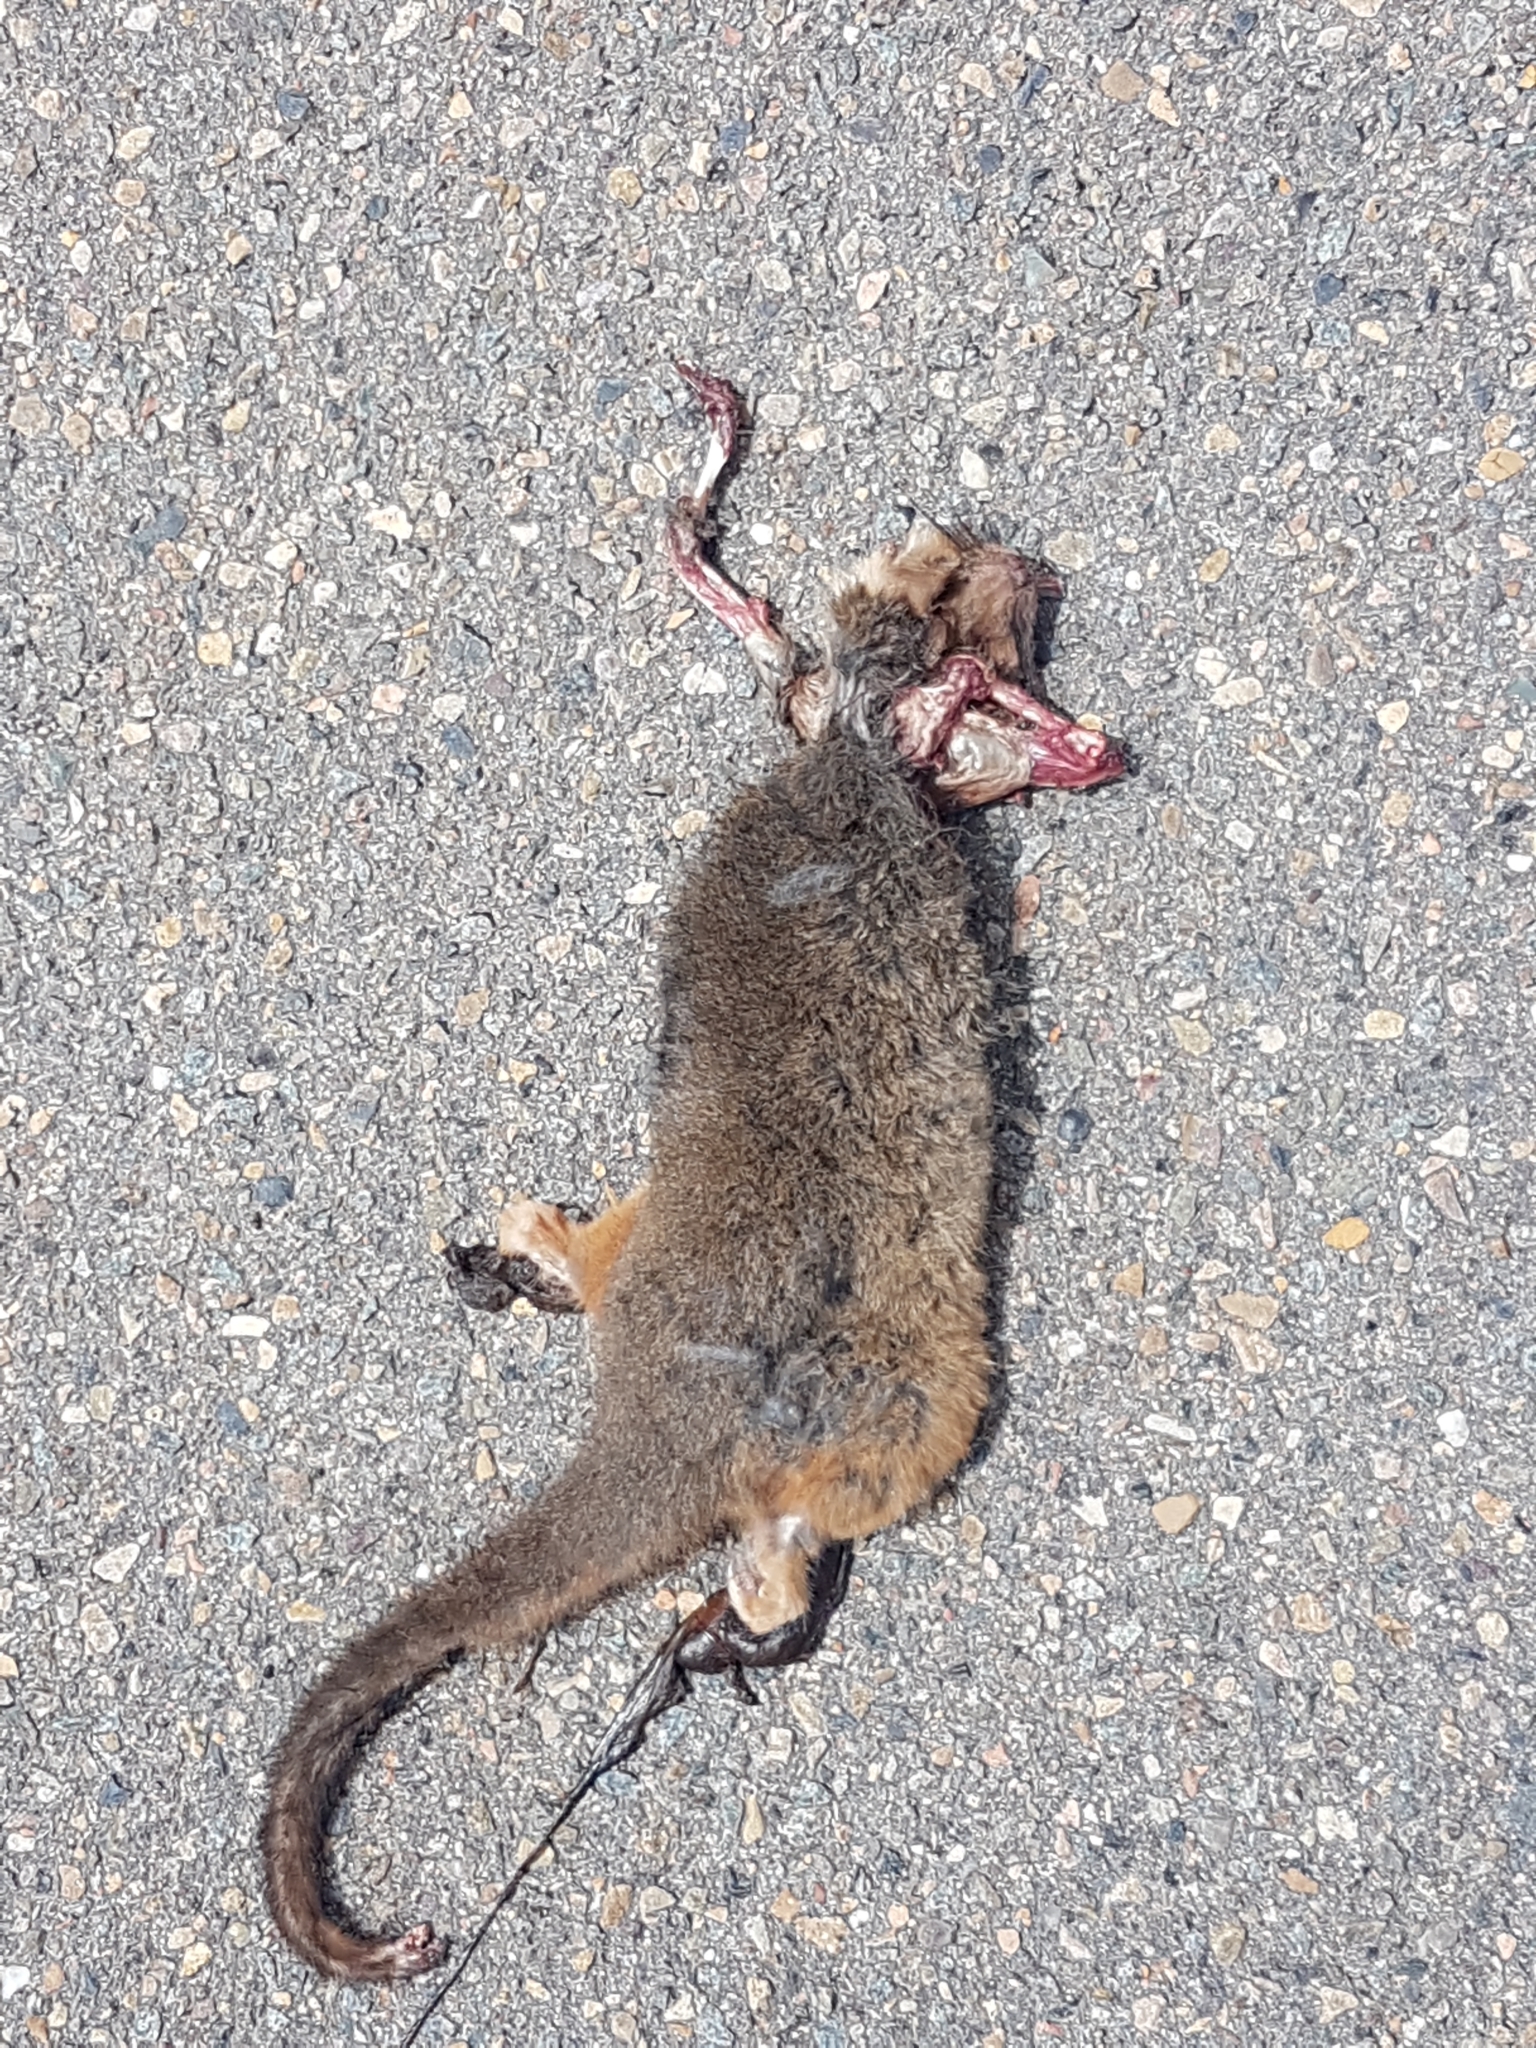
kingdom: Animalia
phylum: Chordata
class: Mammalia
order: Diprotodontia
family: Pseudocheiridae
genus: Pseudocheirus
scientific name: Pseudocheirus peregrinus
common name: Common ringtail possum
